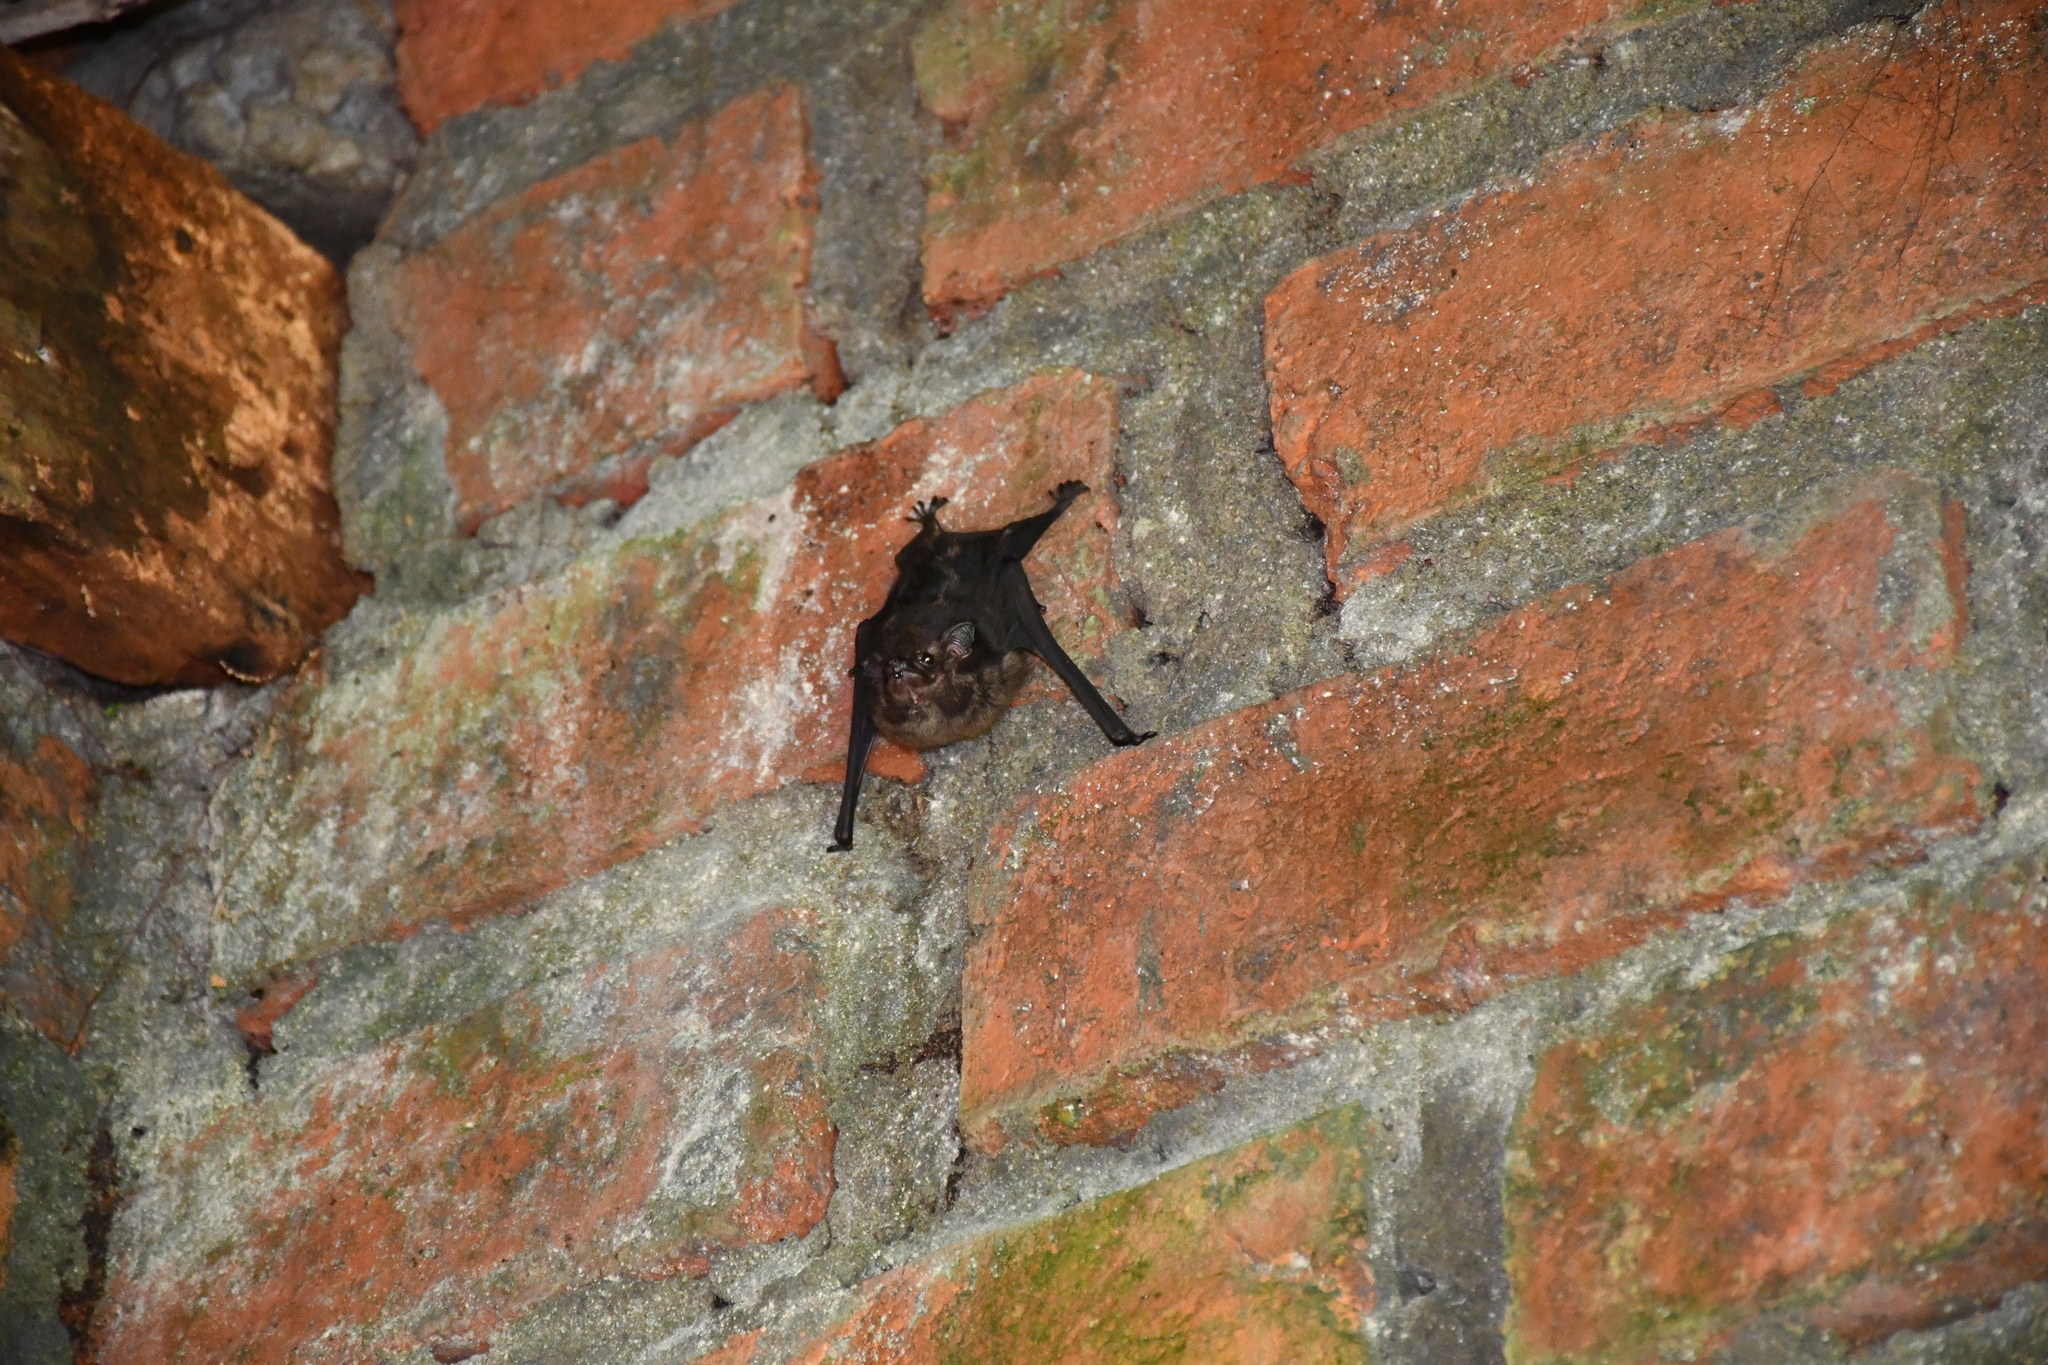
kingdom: Animalia
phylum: Chordata
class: Mammalia
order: Chiroptera
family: Emballonuridae
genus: Saccopteryx
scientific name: Saccopteryx bilineata
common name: Greater sac-winged bat
